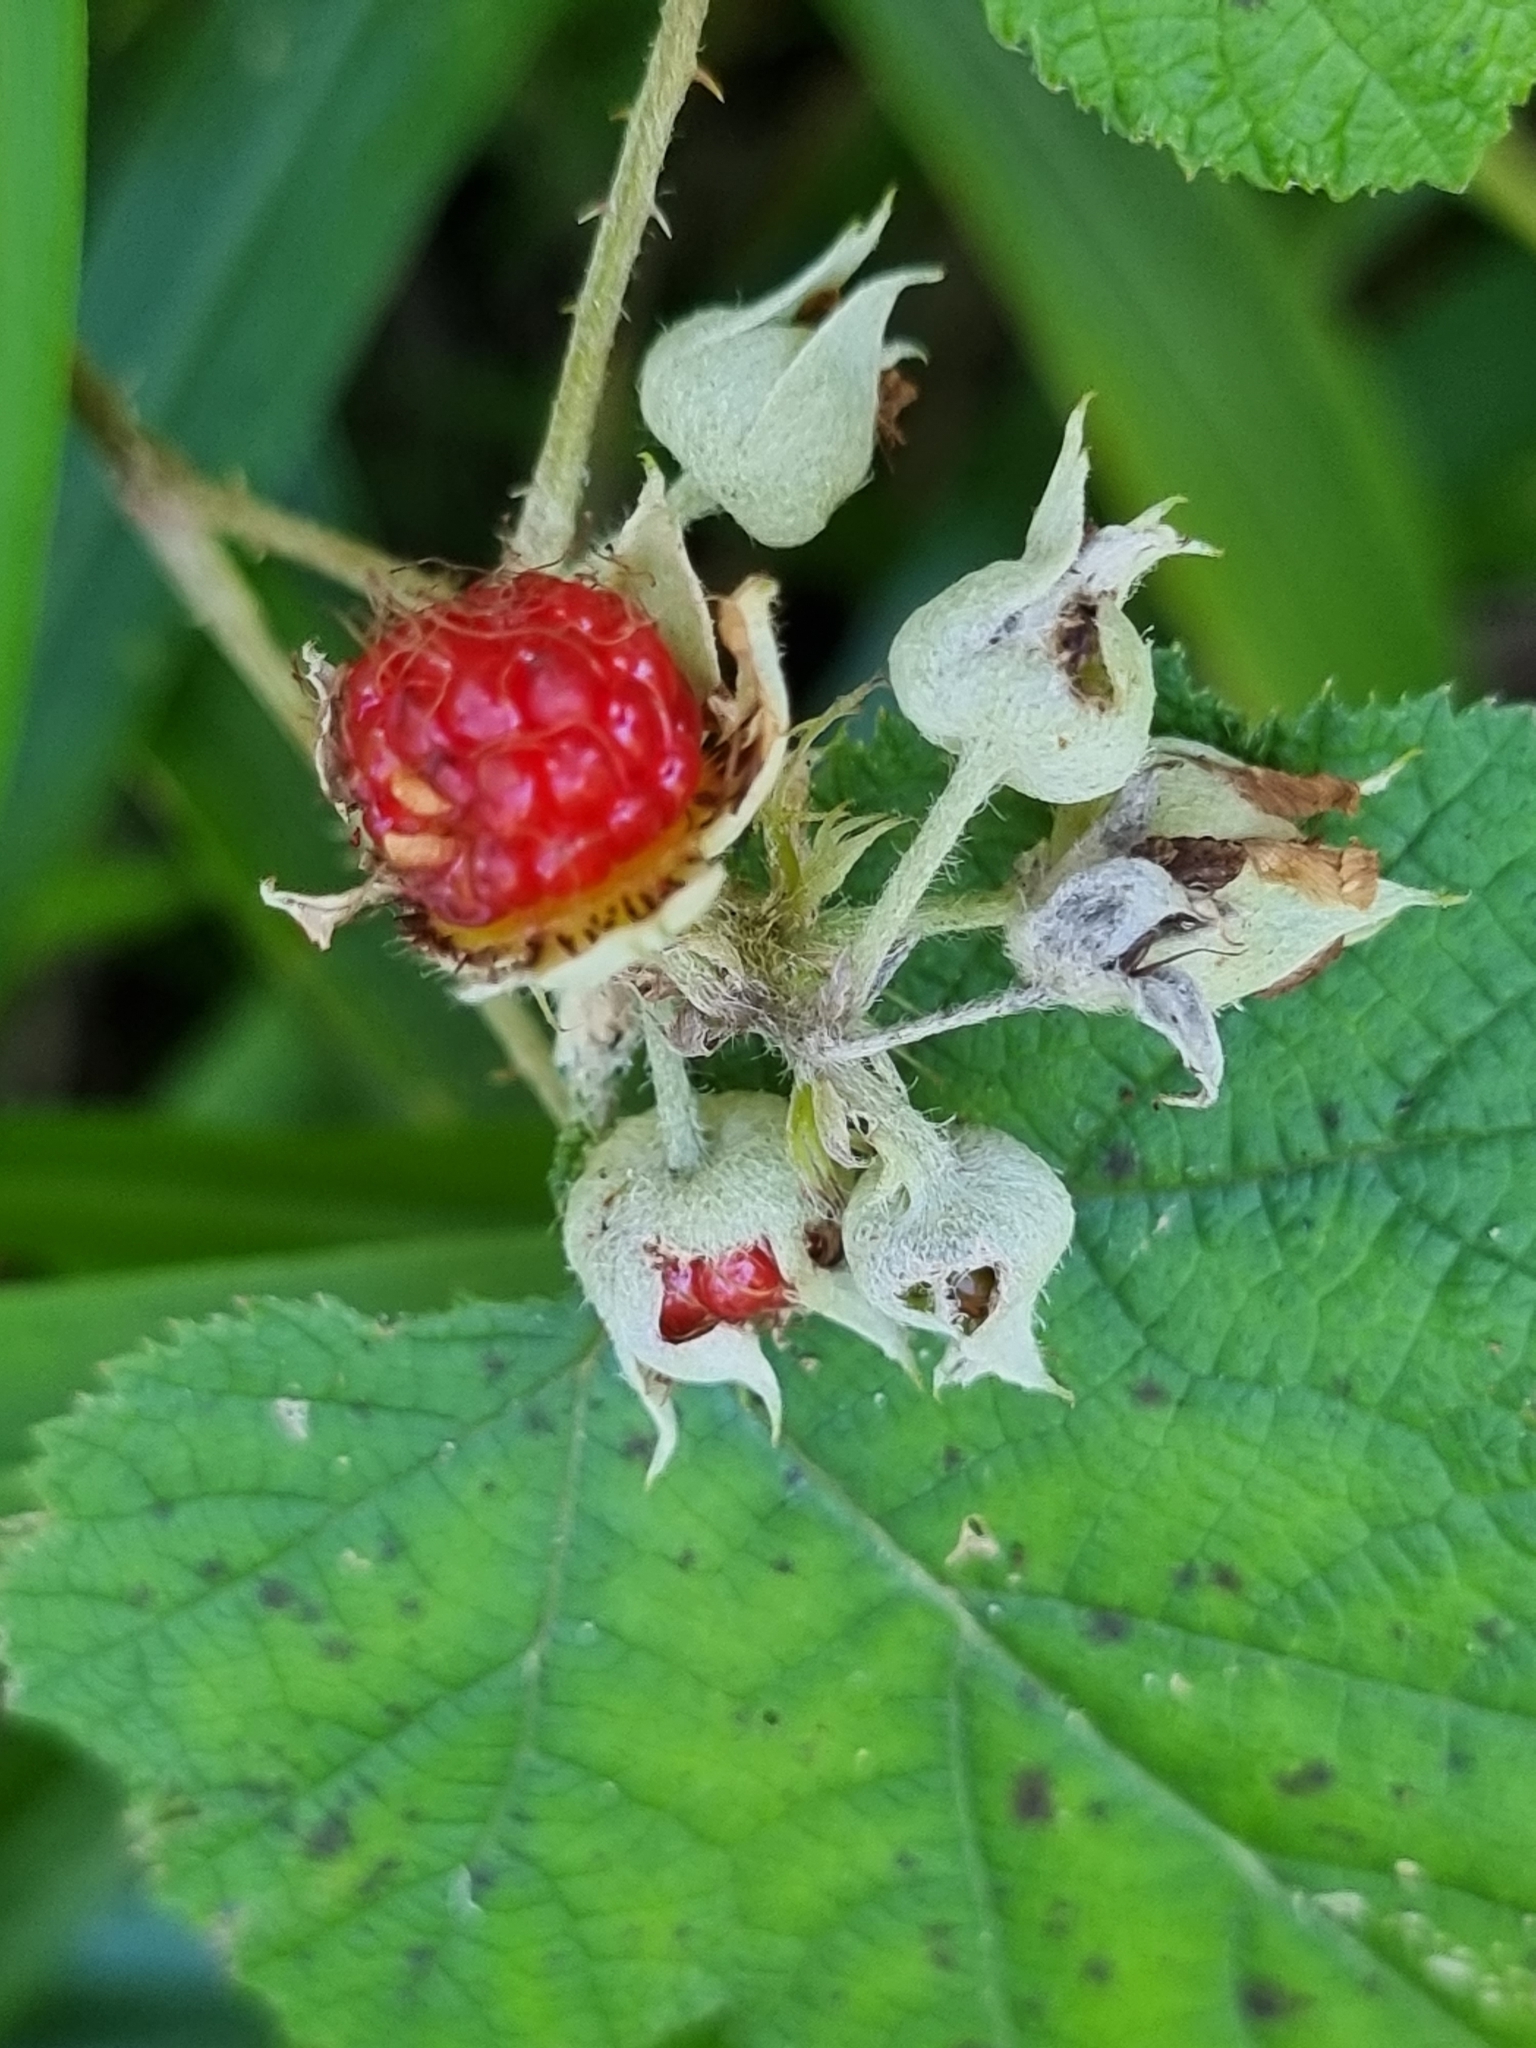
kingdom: Plantae
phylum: Tracheophyta
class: Magnoliopsida
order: Rosales
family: Rosaceae
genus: Rubus
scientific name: Rubus moluccanus
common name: Wild raspberry
